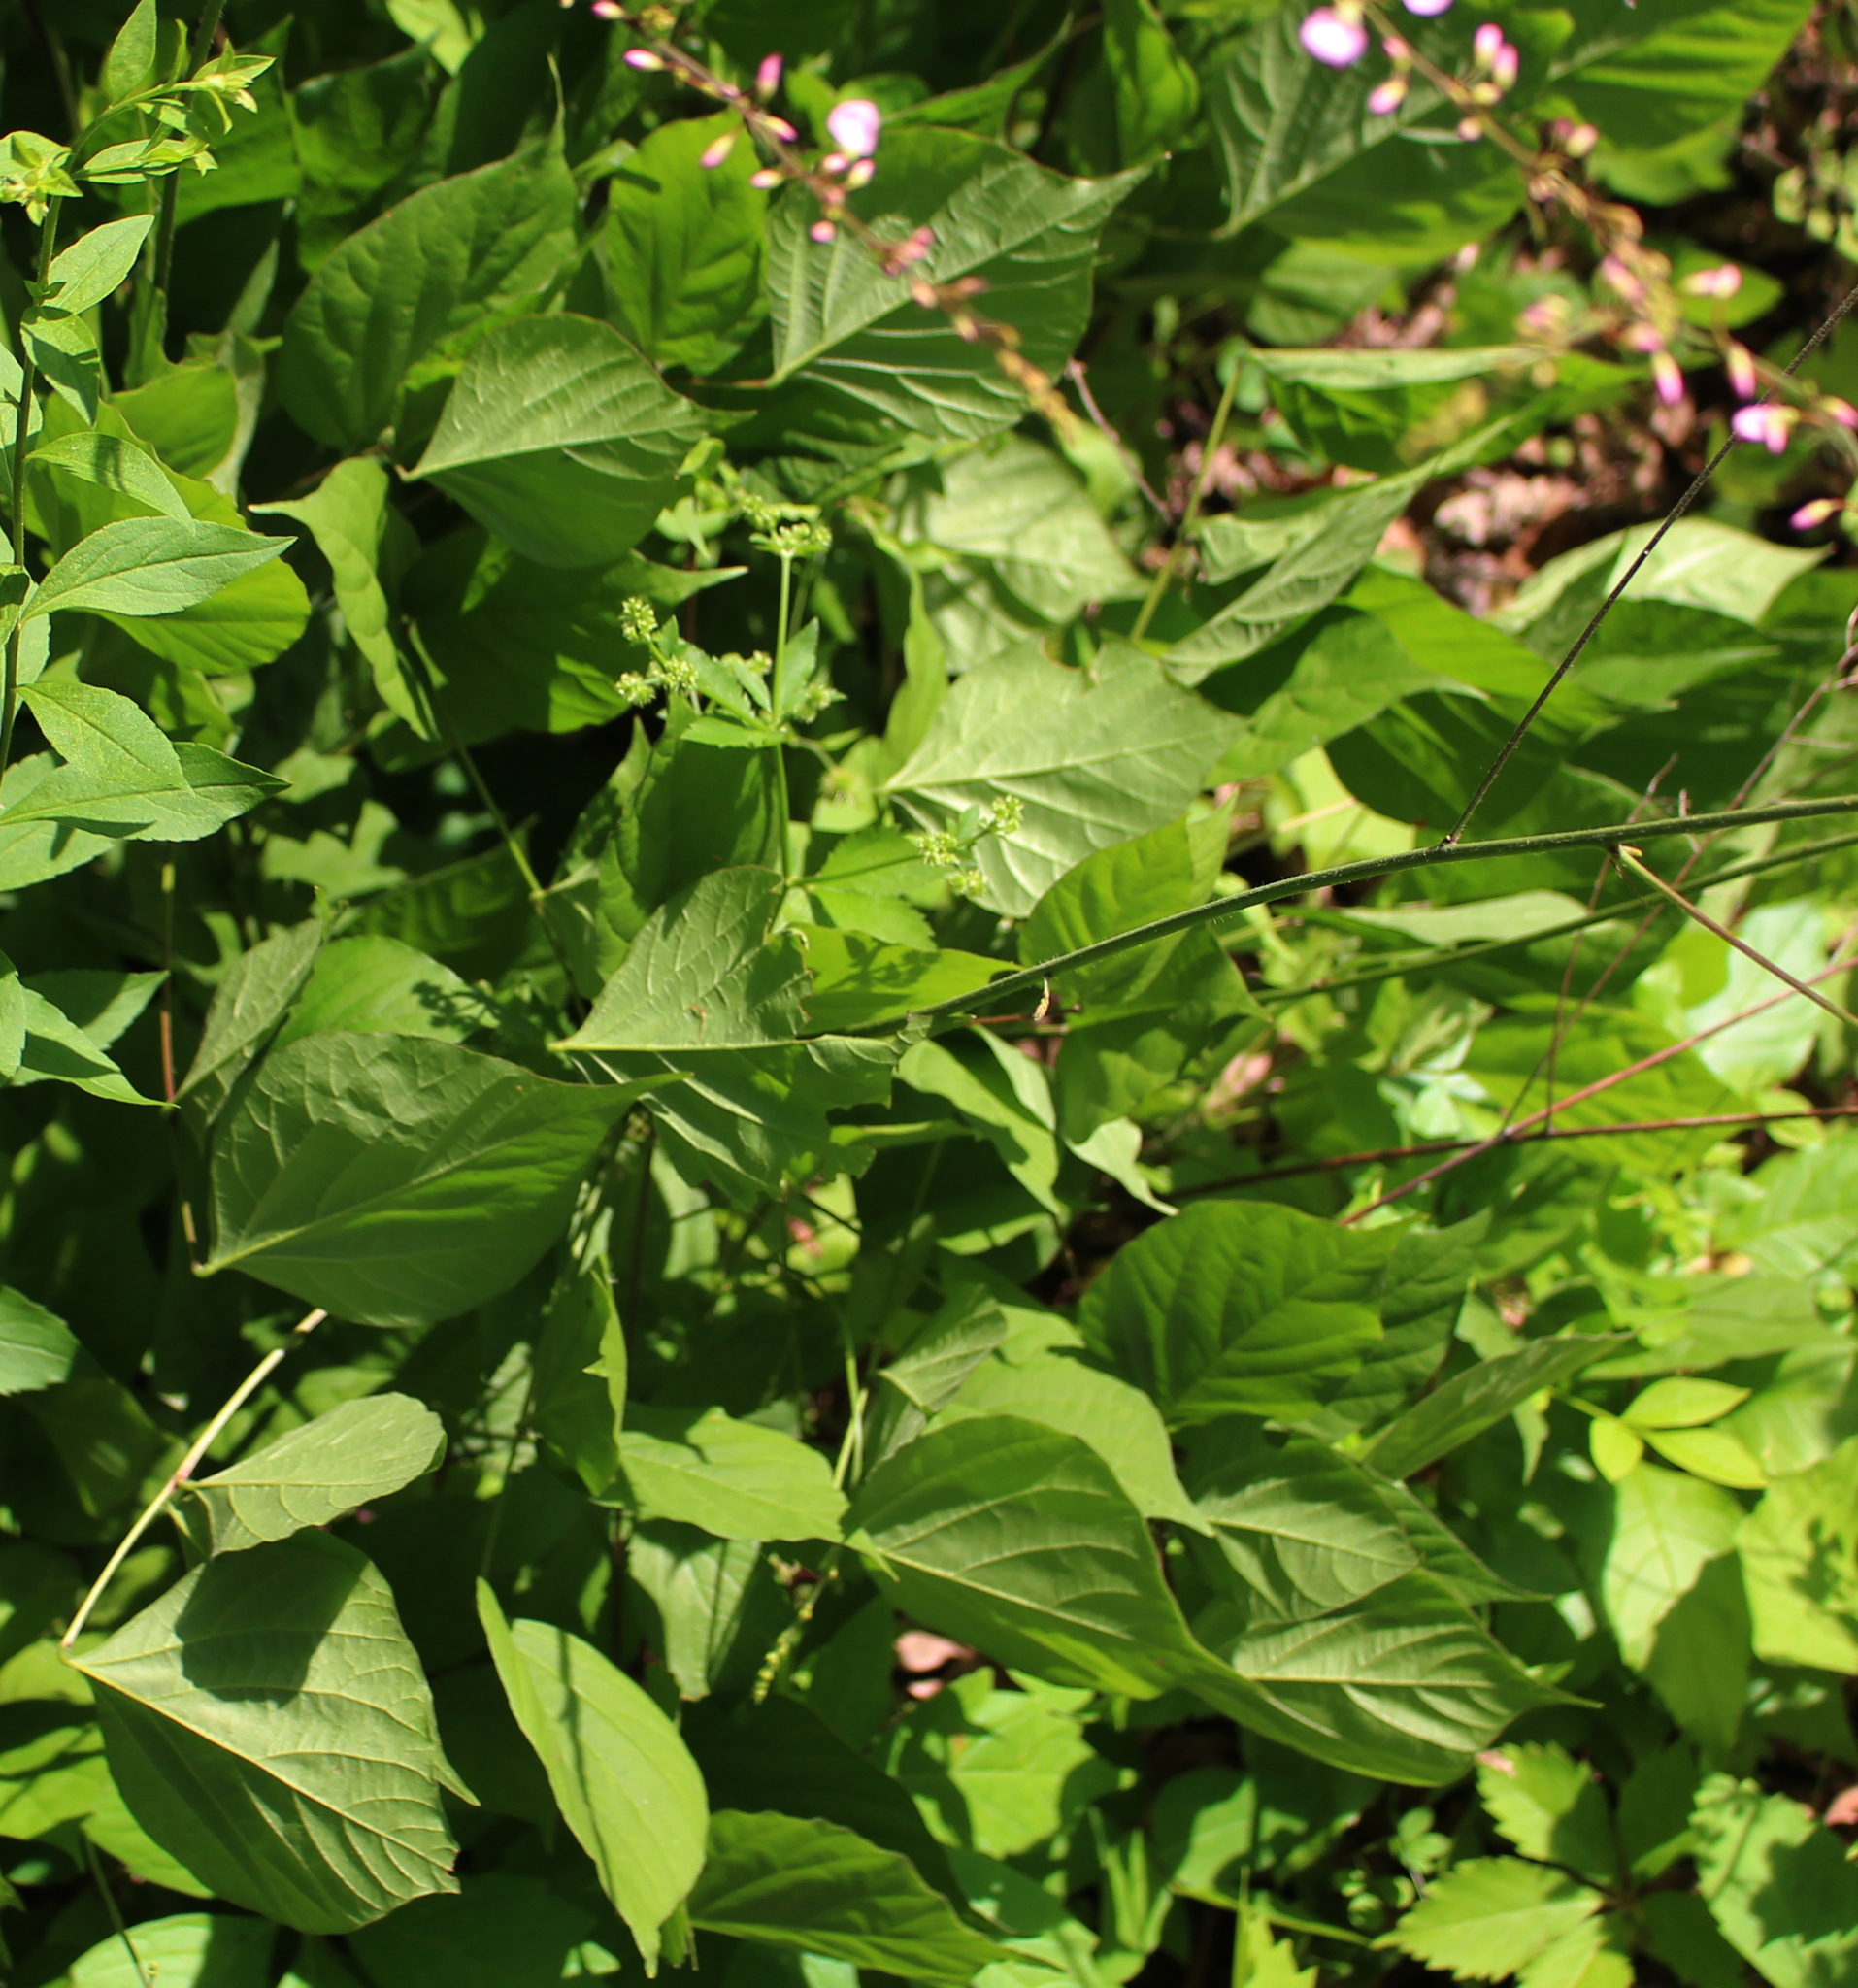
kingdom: Plantae
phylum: Tracheophyta
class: Magnoliopsida
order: Fabales
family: Fabaceae
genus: Hylodesmum
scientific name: Hylodesmum glutinosum
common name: Clustered-leaved tick-trefoil
